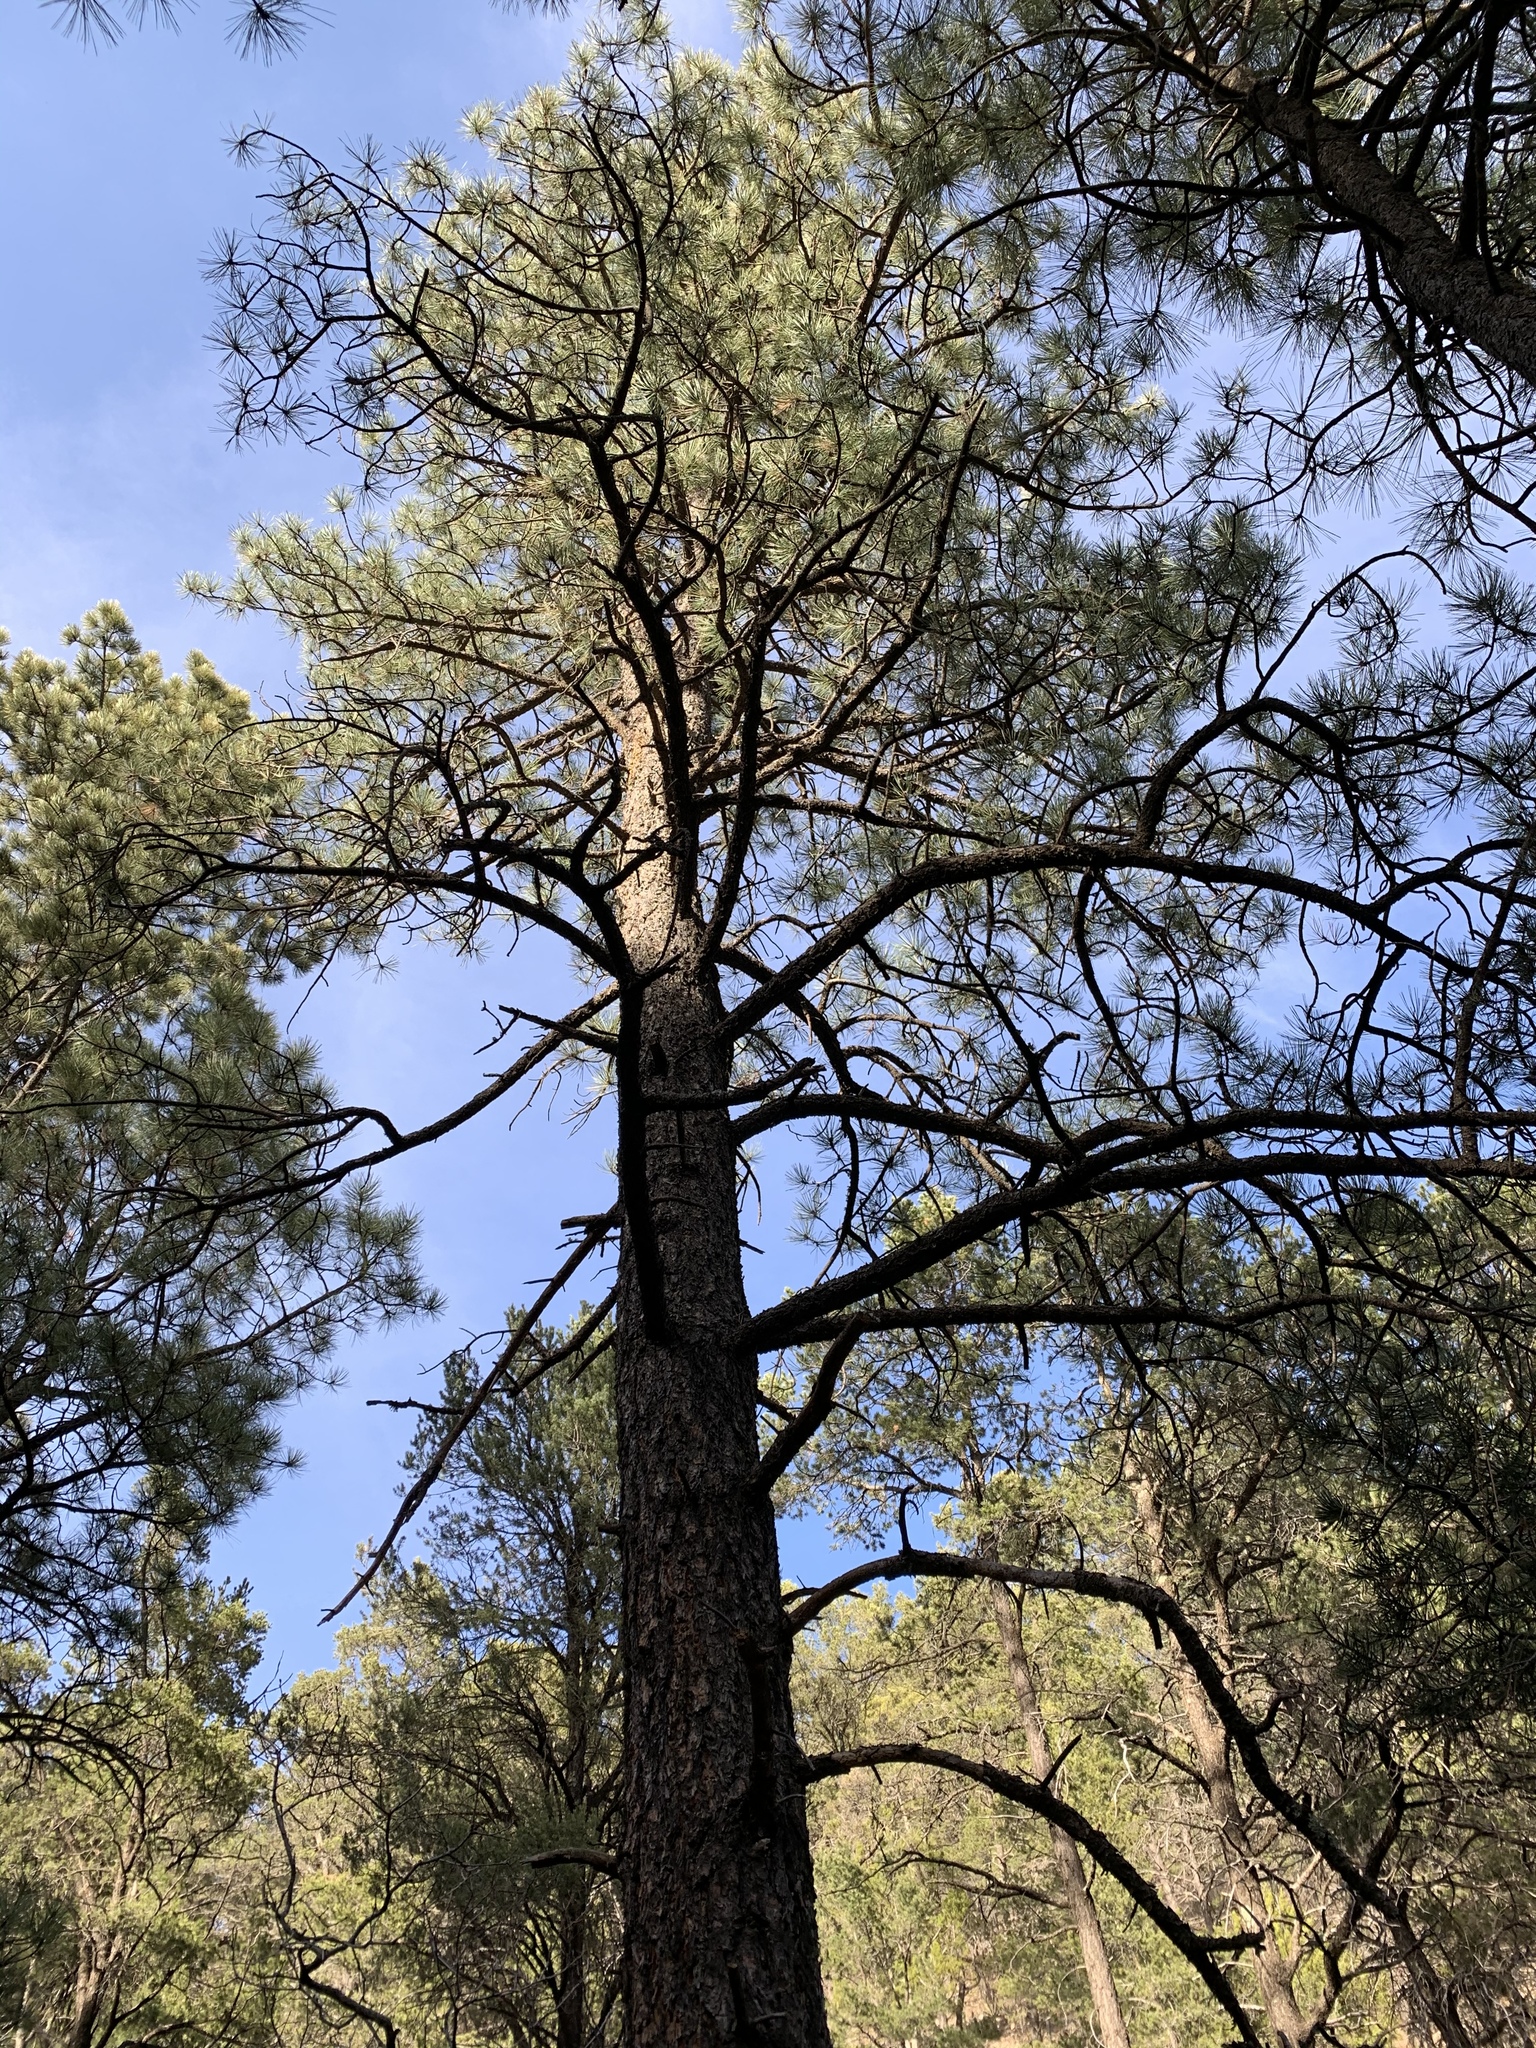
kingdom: Plantae
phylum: Tracheophyta
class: Pinopsida
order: Pinales
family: Pinaceae
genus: Pinus
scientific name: Pinus ponderosa
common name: Western yellow-pine
